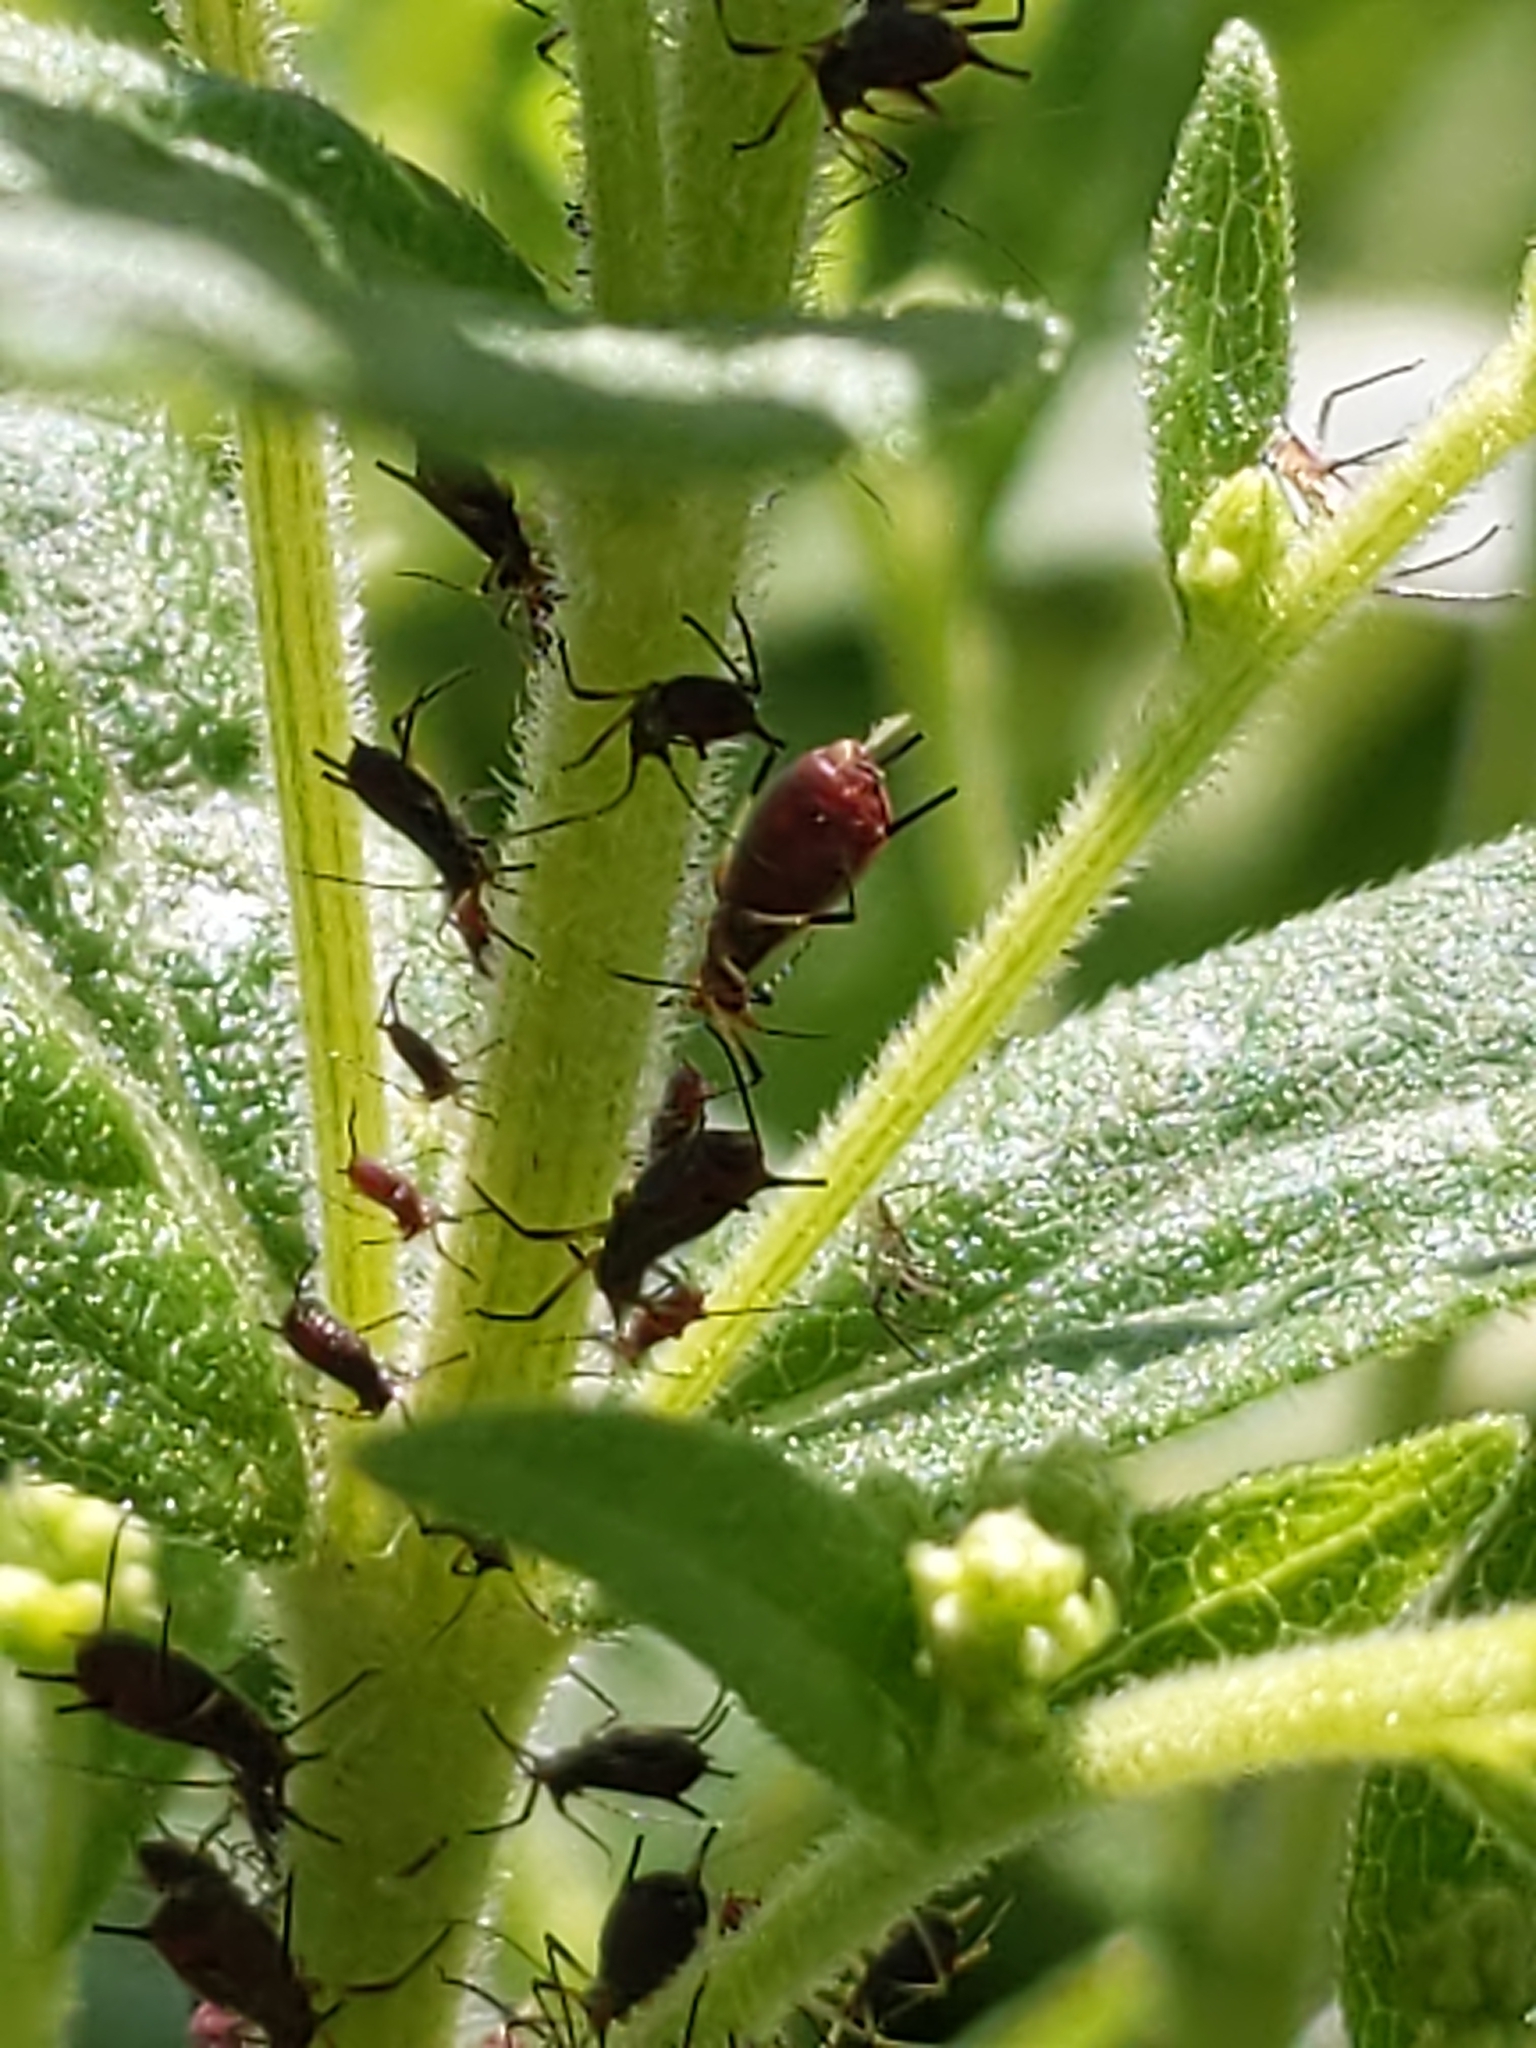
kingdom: Animalia
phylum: Arthropoda
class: Insecta
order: Hemiptera
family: Aphididae
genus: Uroleucon
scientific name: Uroleucon
